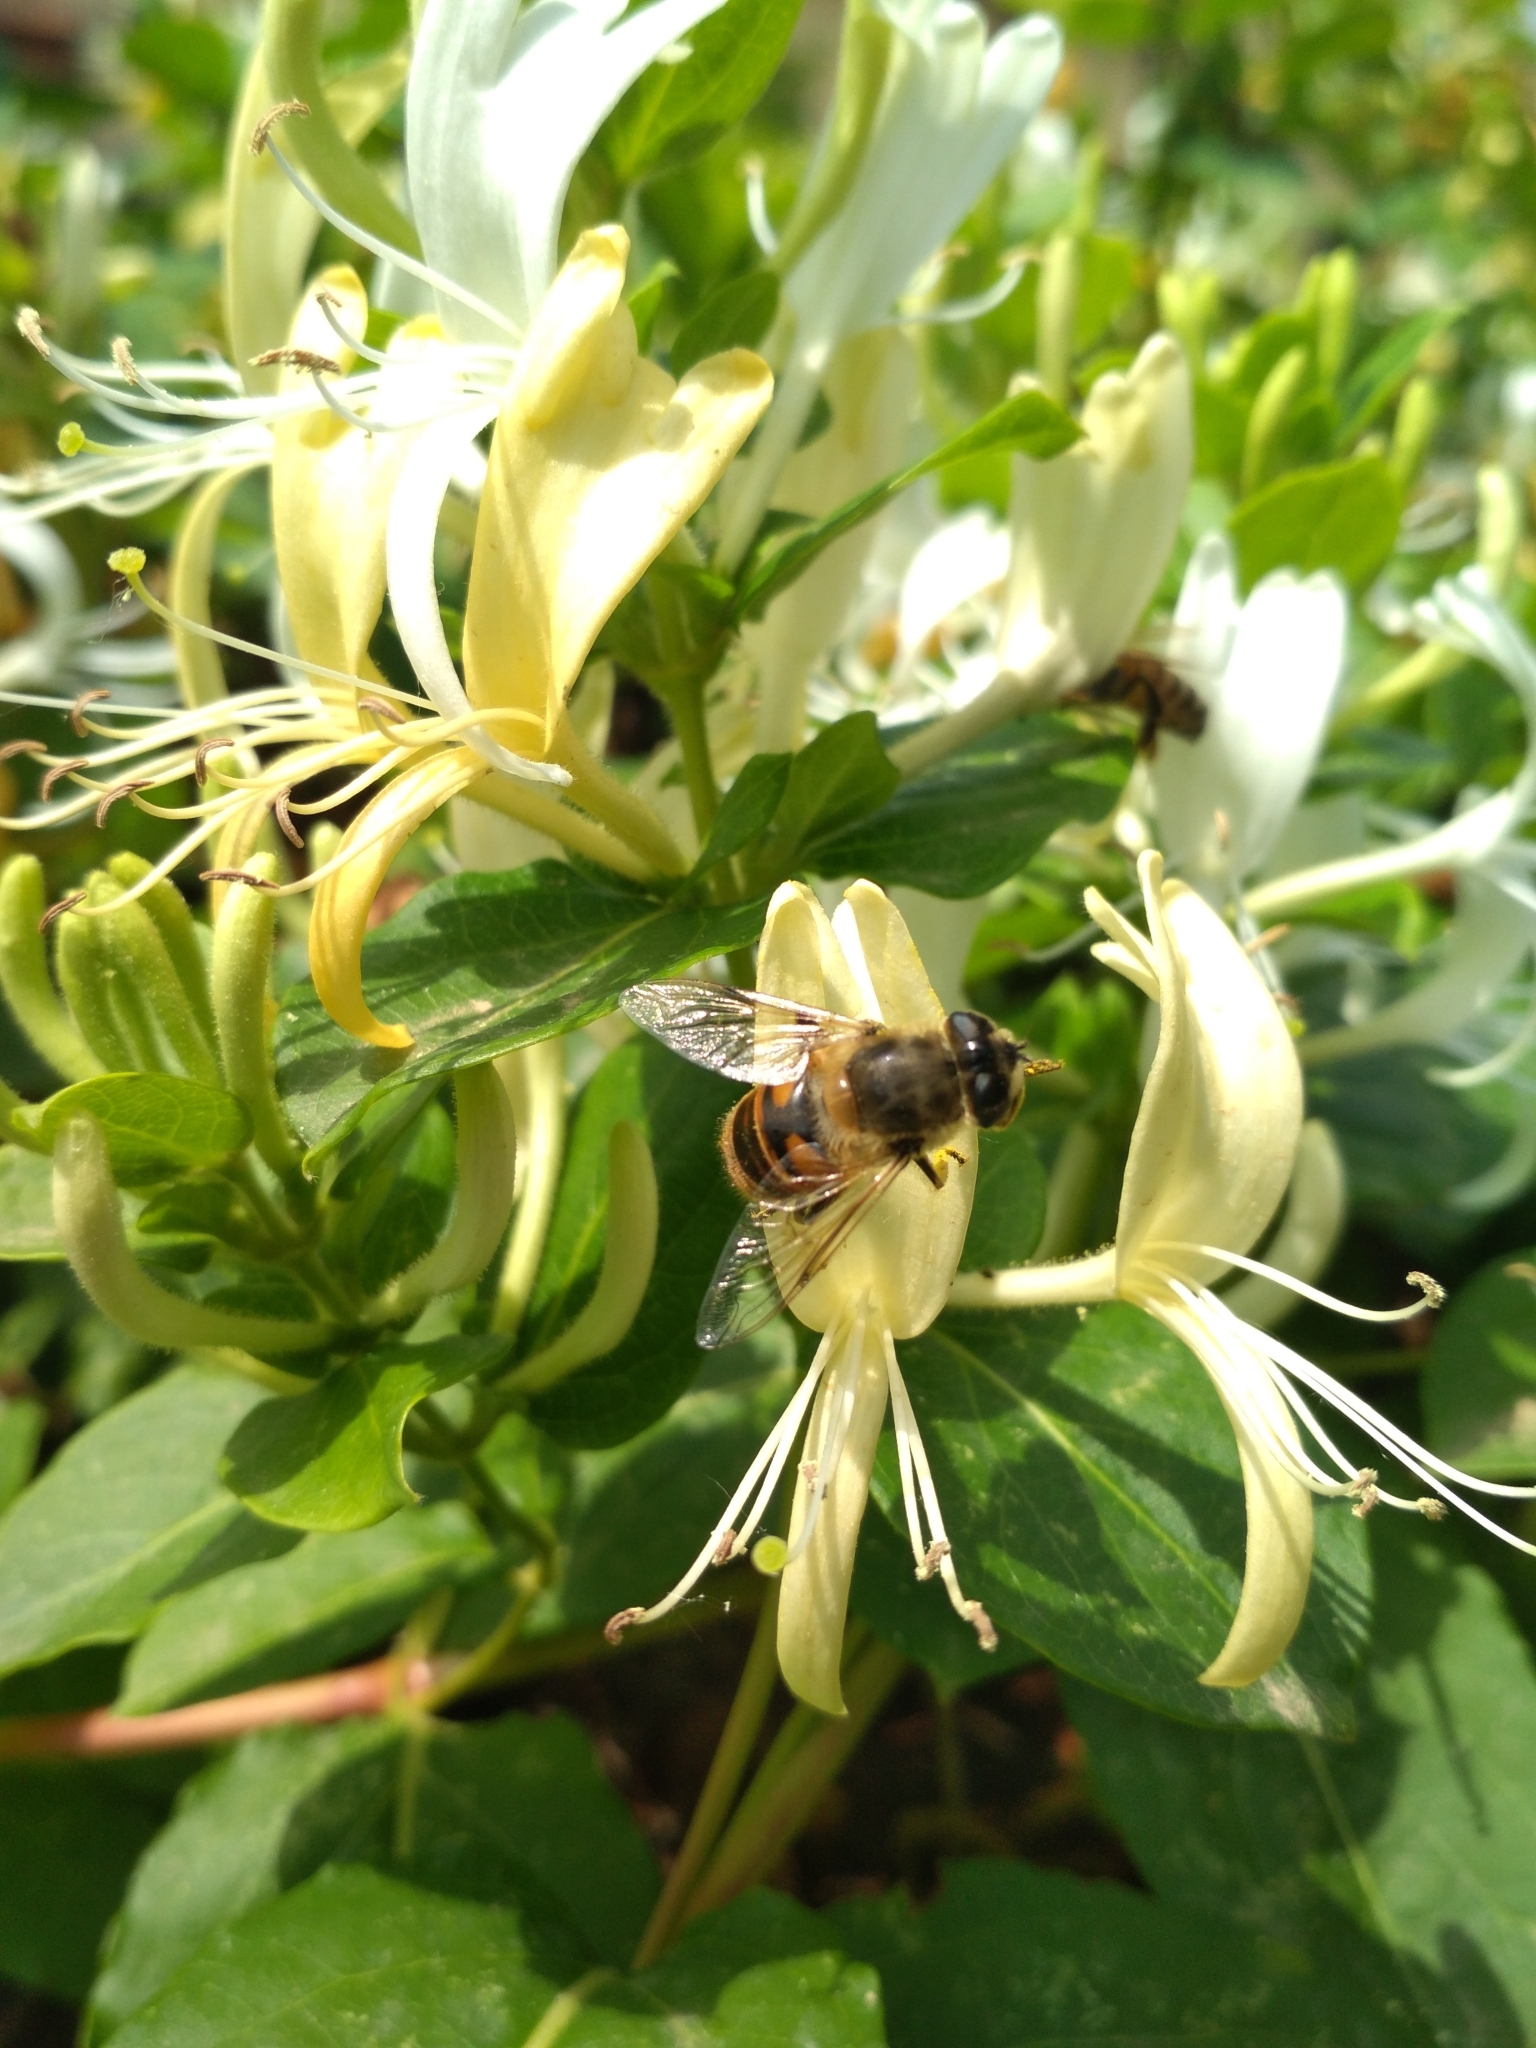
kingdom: Animalia
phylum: Arthropoda
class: Insecta
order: Diptera
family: Syrphidae
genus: Eristalis
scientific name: Eristalis tenax
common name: Drone fly
